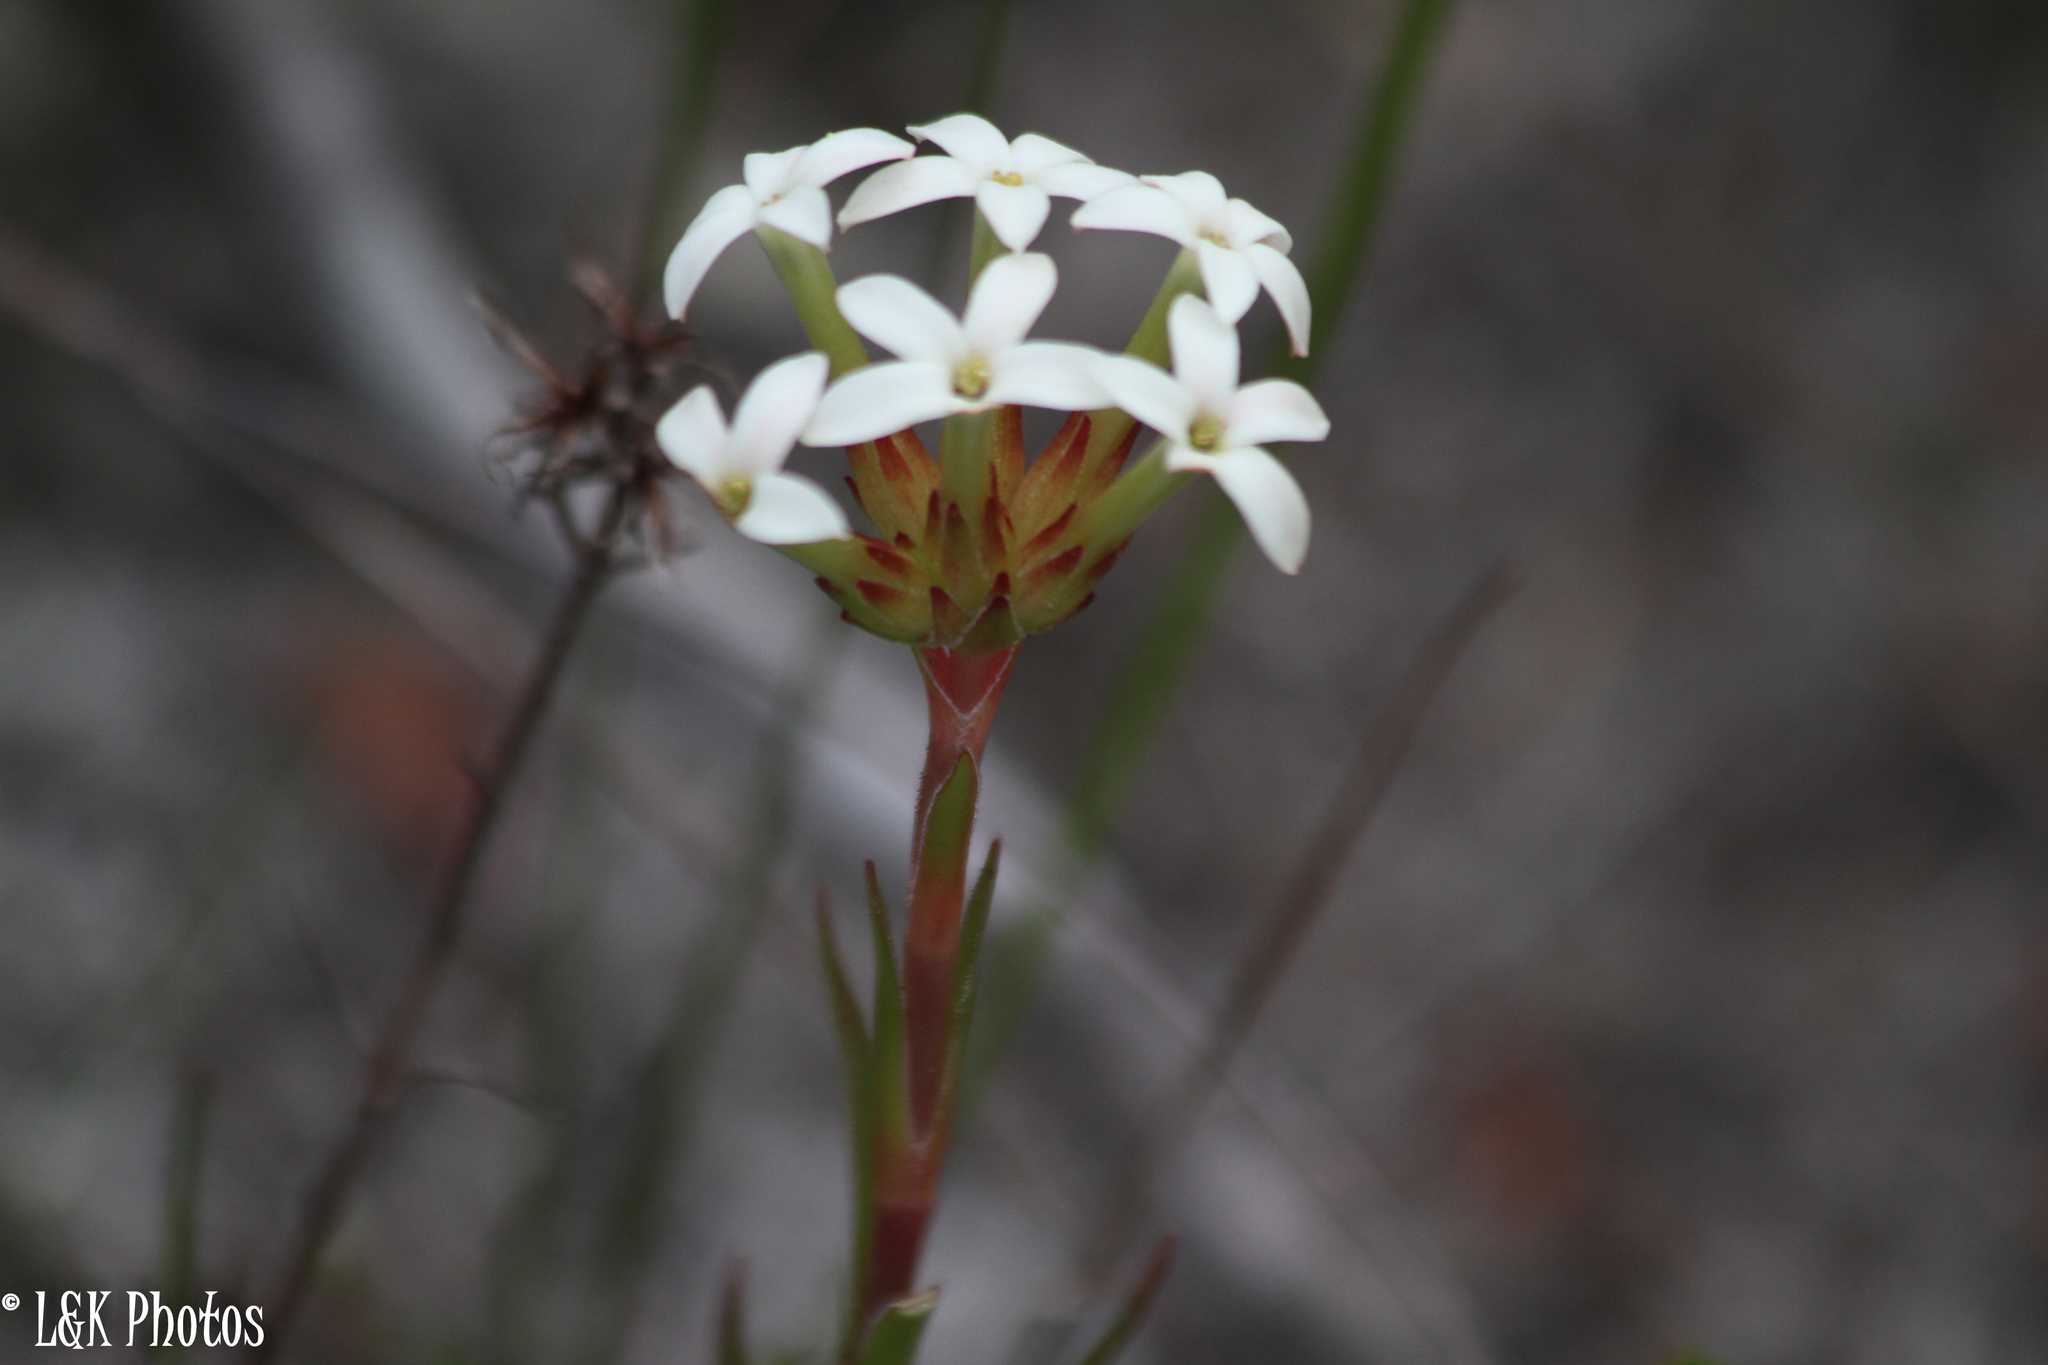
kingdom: Plantae
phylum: Tracheophyta
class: Magnoliopsida
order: Saxifragales
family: Crassulaceae
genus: Crassula
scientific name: Crassula fascicularis
